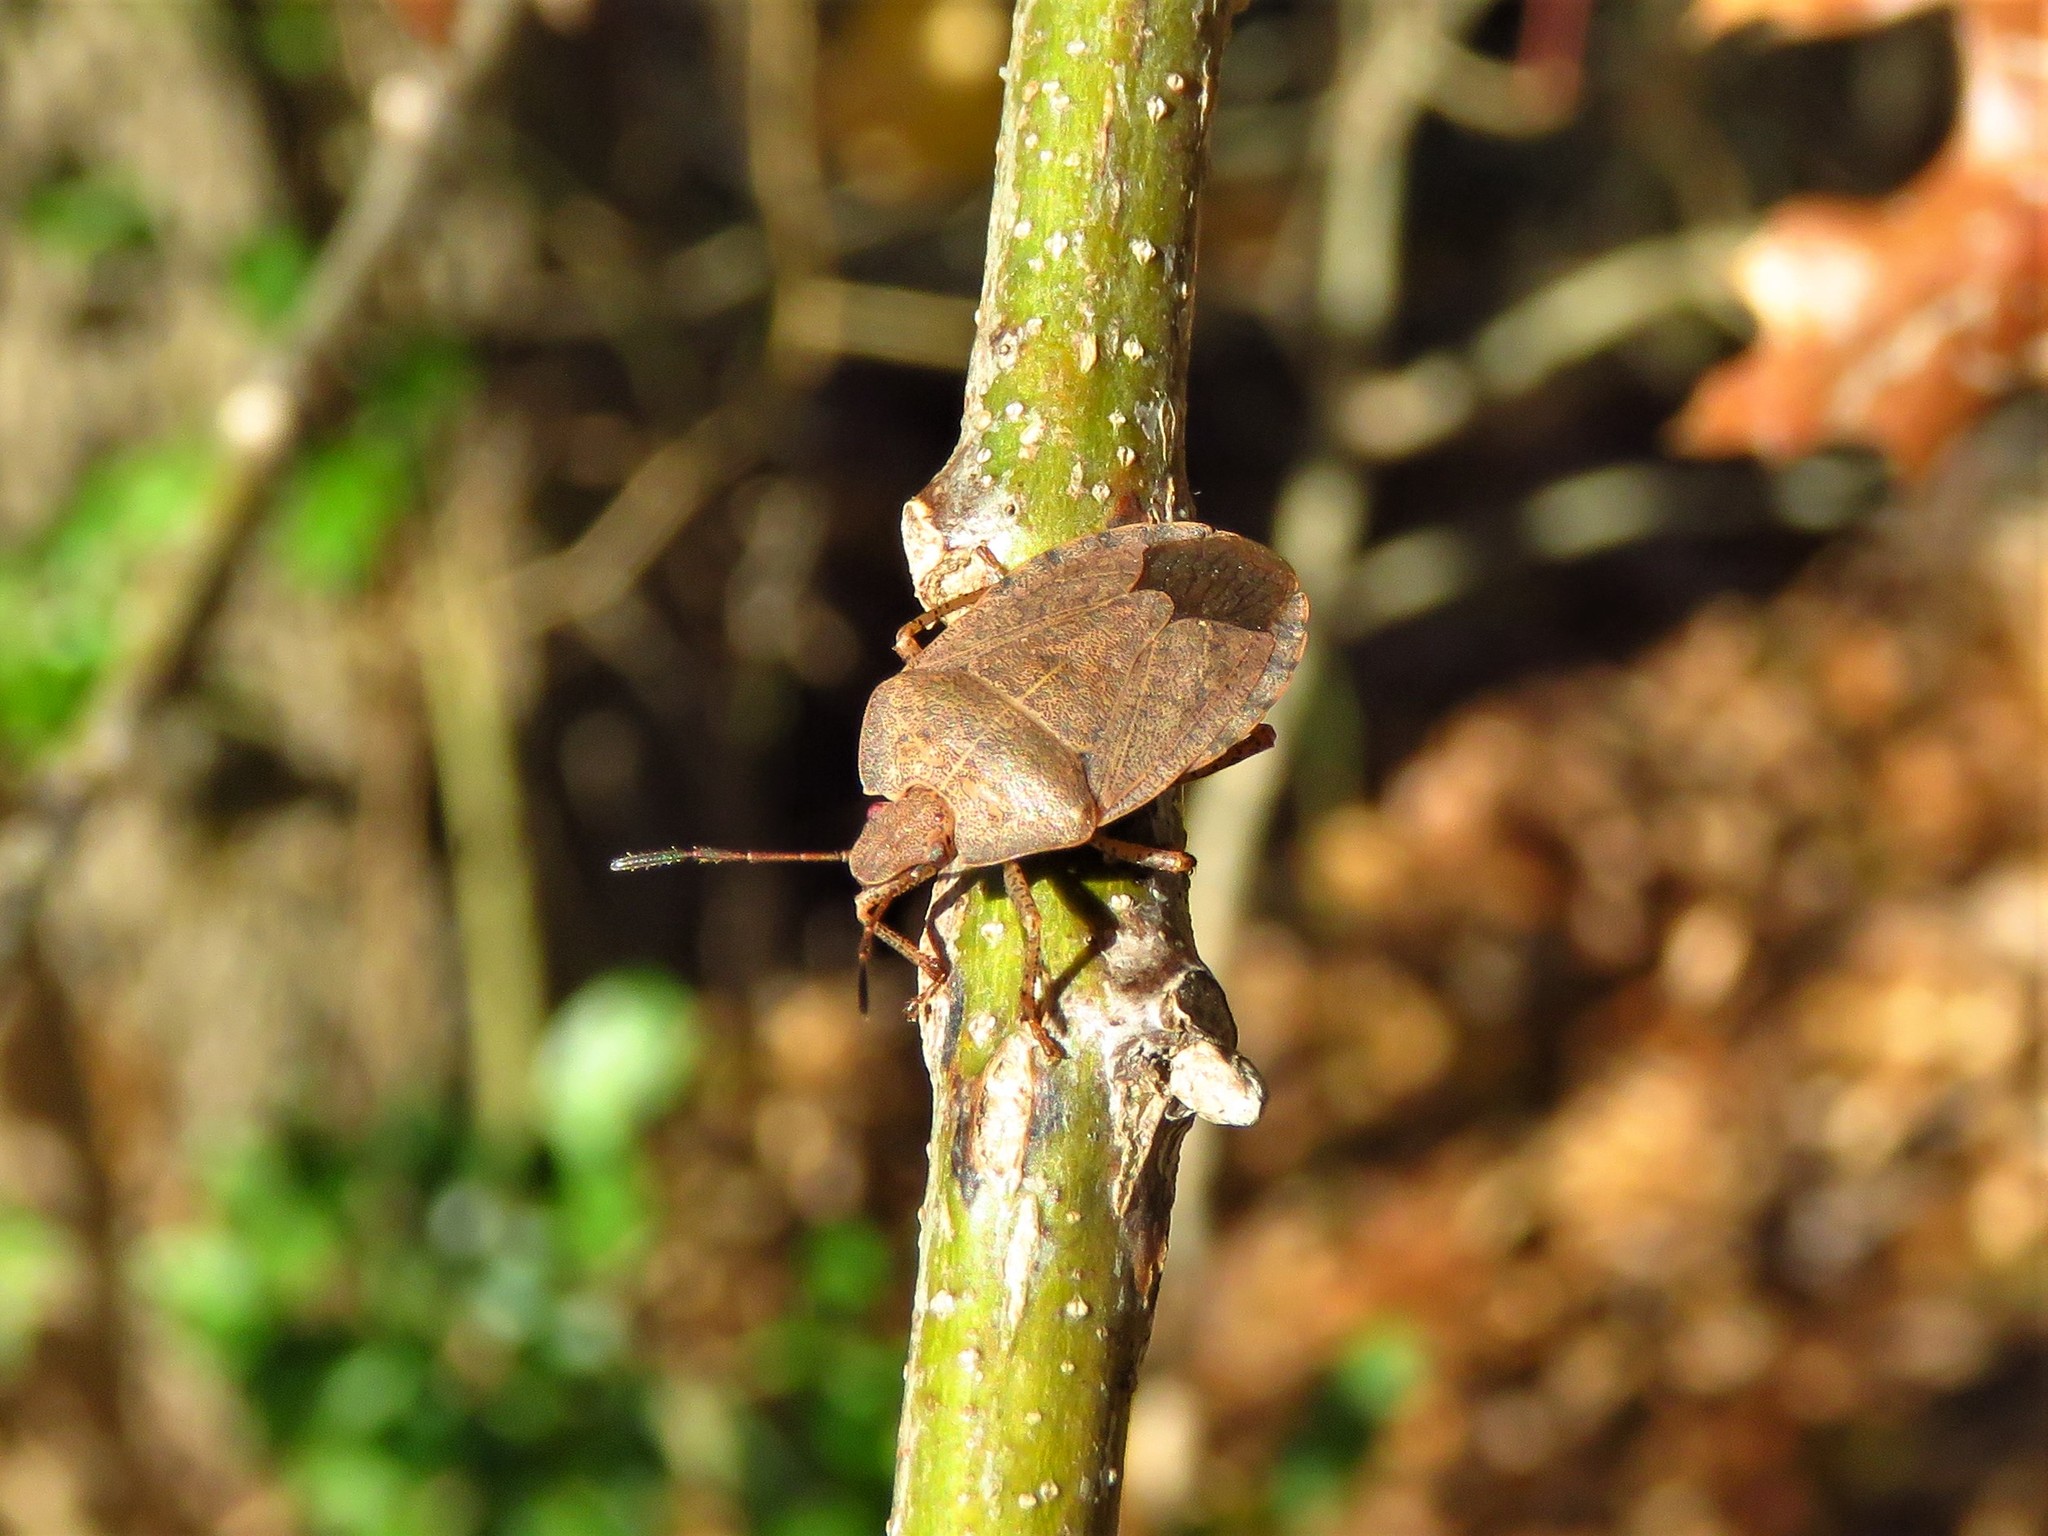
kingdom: Animalia
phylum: Arthropoda
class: Insecta
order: Hemiptera
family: Pentatomidae
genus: Menecles
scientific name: Menecles insertus
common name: Elf shoe stink bug
